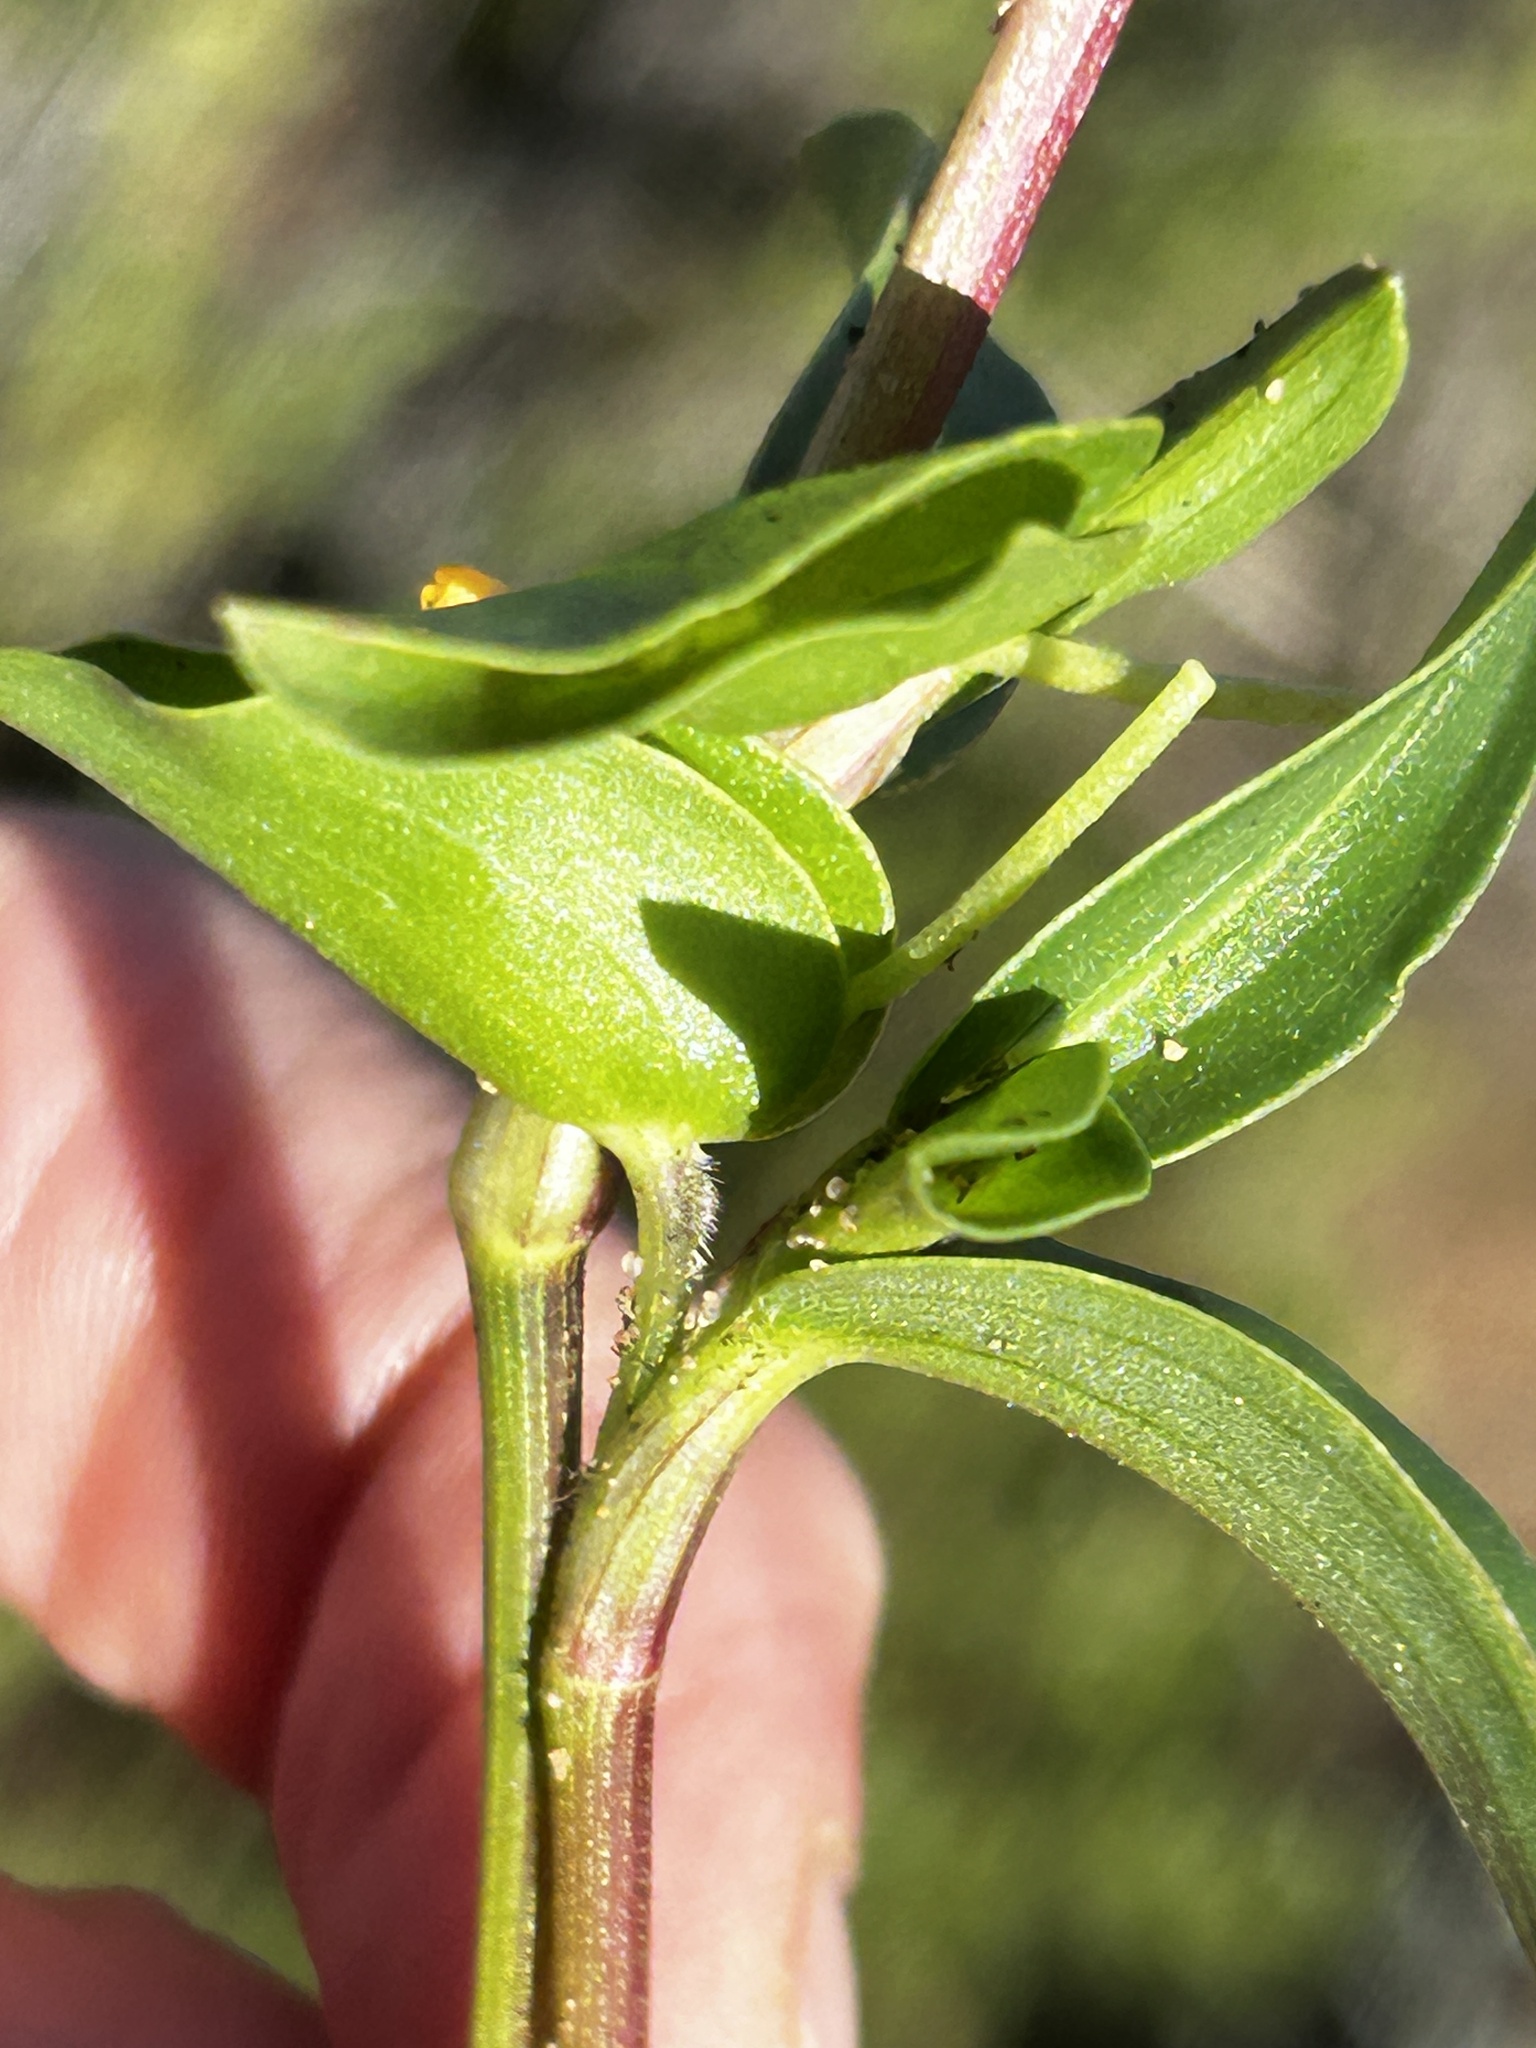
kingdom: Plantae
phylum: Tracheophyta
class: Liliopsida
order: Commelinales
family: Commelinaceae
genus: Commelina
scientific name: Commelina africana
